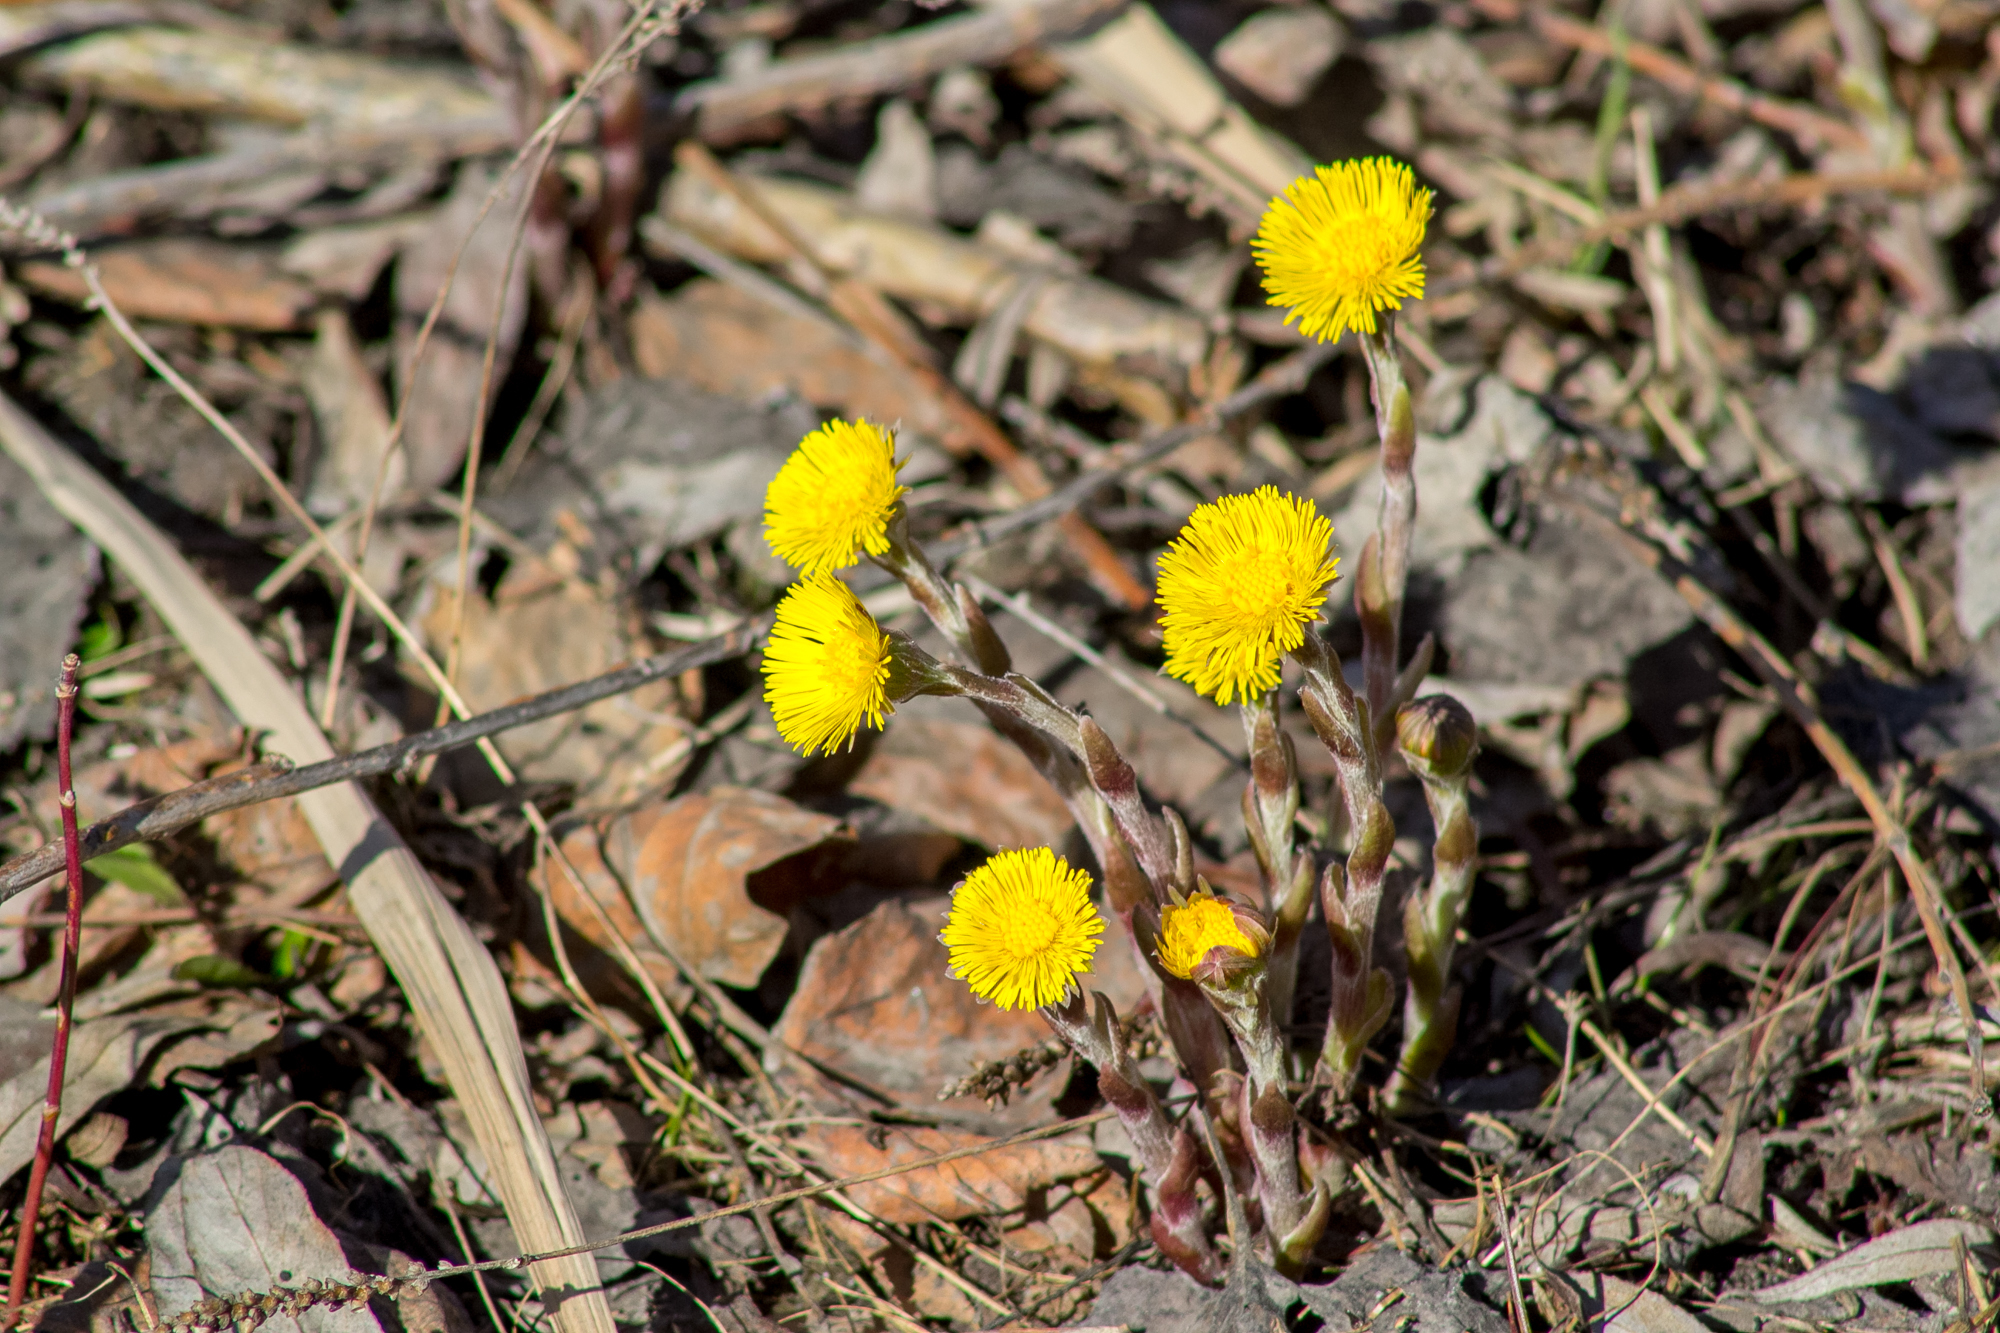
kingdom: Plantae
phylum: Tracheophyta
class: Magnoliopsida
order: Asterales
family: Asteraceae
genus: Tussilago
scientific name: Tussilago farfara
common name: Coltsfoot
